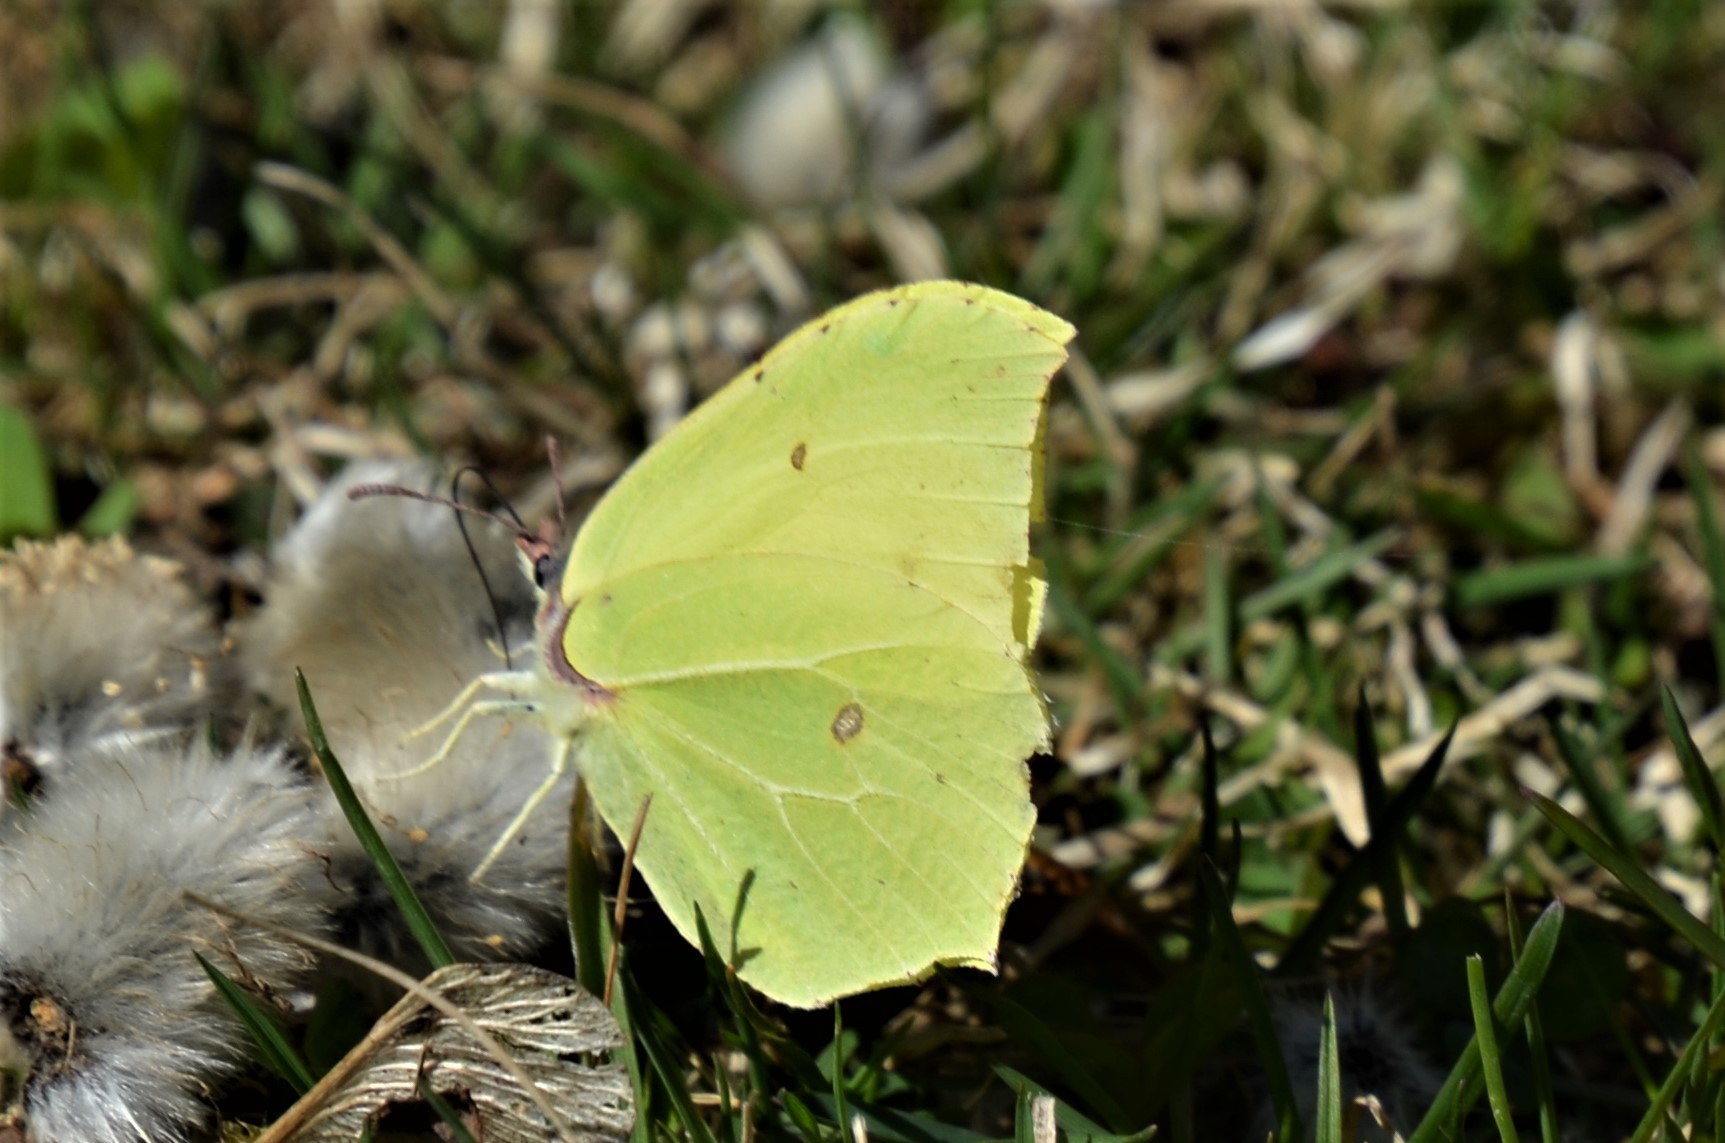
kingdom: Animalia
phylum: Arthropoda
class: Insecta
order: Lepidoptera
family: Pieridae
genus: Gonepteryx
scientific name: Gonepteryx rhamni
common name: Brimstone
